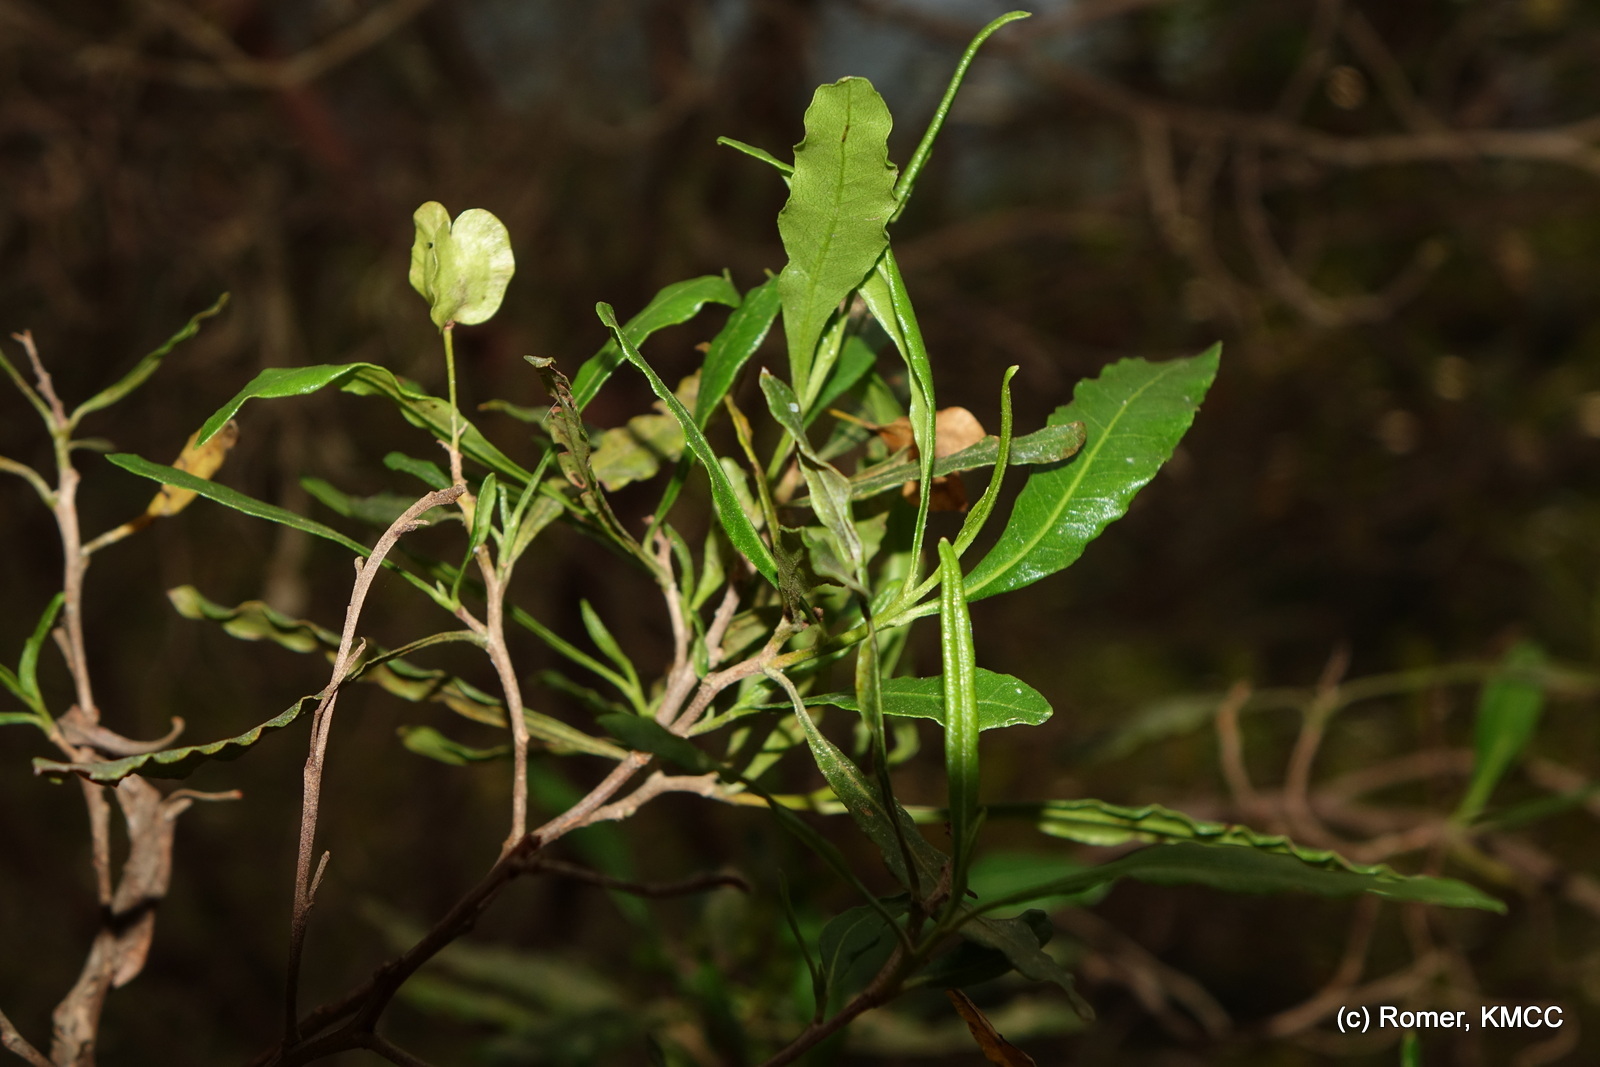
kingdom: Plantae
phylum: Tracheophyta
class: Magnoliopsida
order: Sapindales
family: Sapindaceae
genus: Dodonaea
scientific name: Dodonaea viscosa
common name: Hopbush
